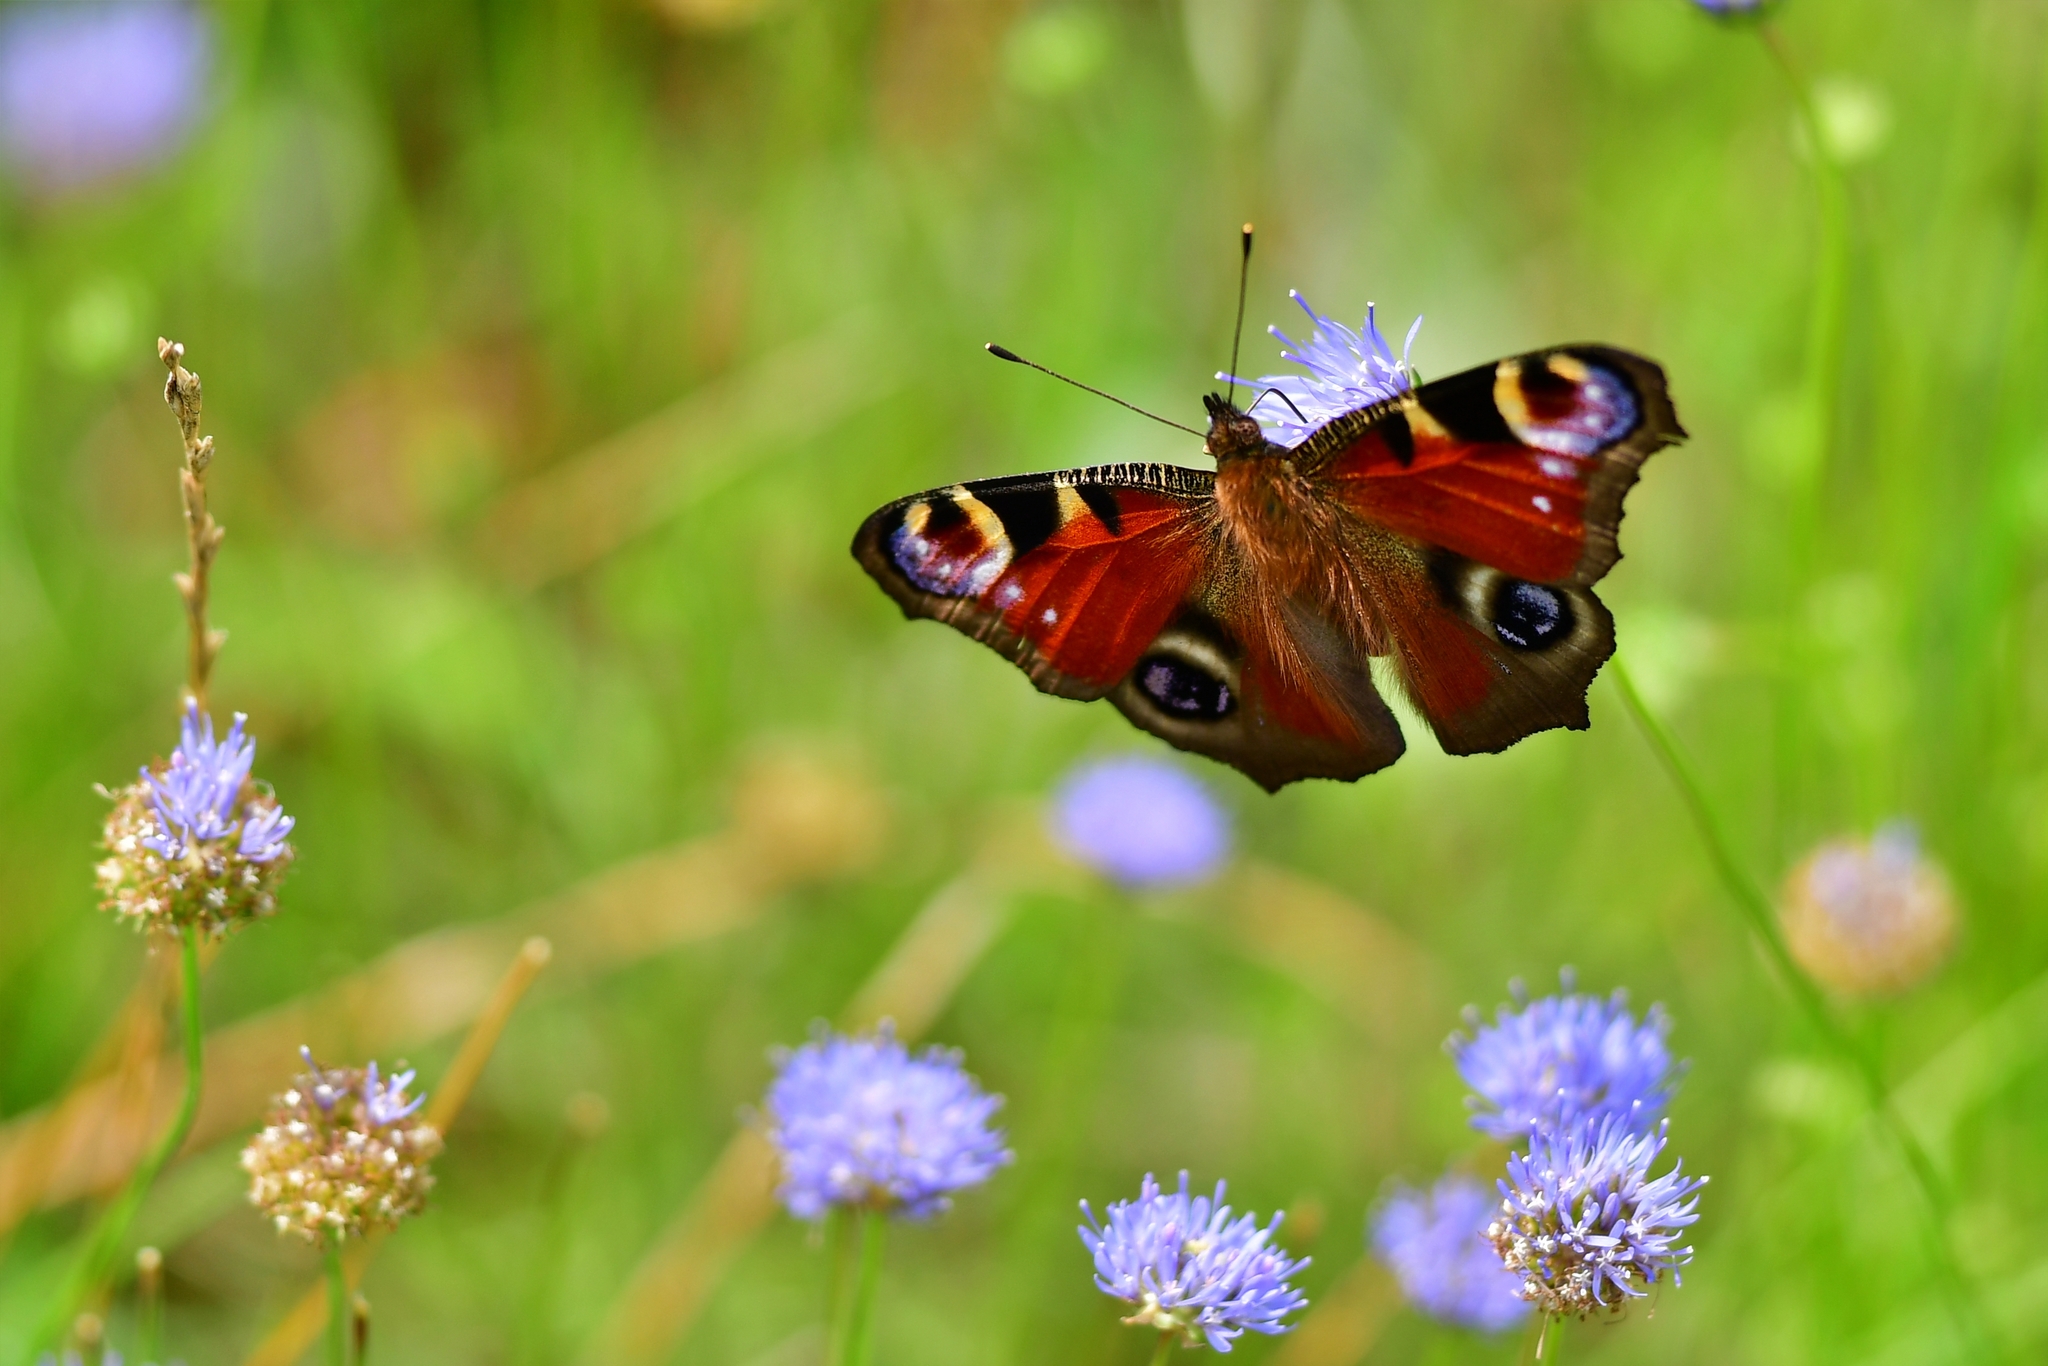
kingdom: Animalia
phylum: Arthropoda
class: Insecta
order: Lepidoptera
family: Nymphalidae
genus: Aglais
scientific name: Aglais io
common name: Peacock
